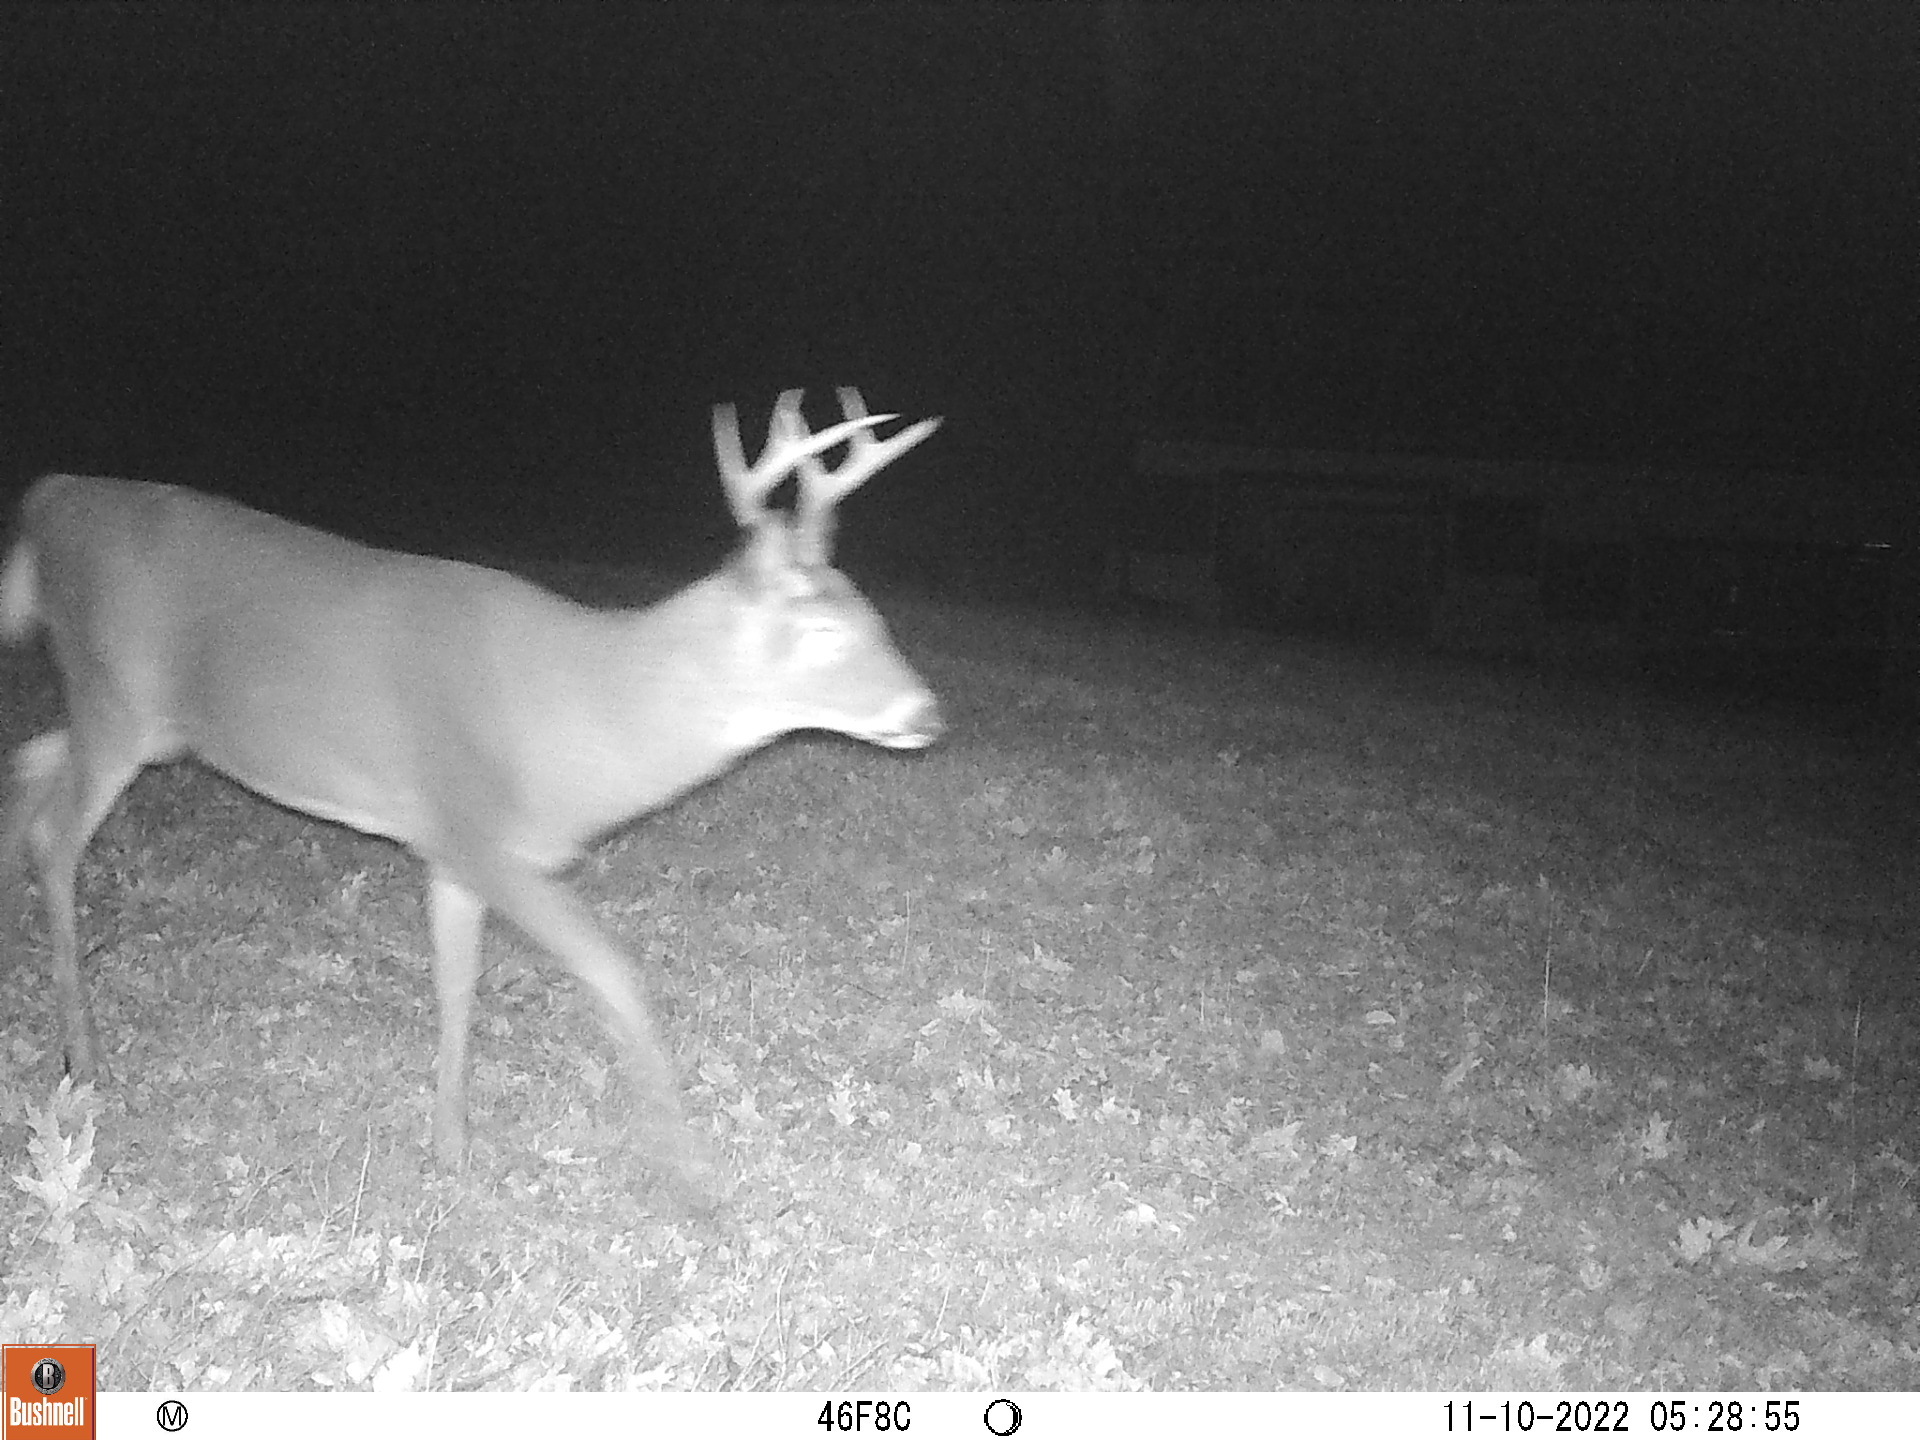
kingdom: Animalia
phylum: Chordata
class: Mammalia
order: Artiodactyla
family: Cervidae
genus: Odocoileus
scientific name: Odocoileus virginianus
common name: White-tailed deer
